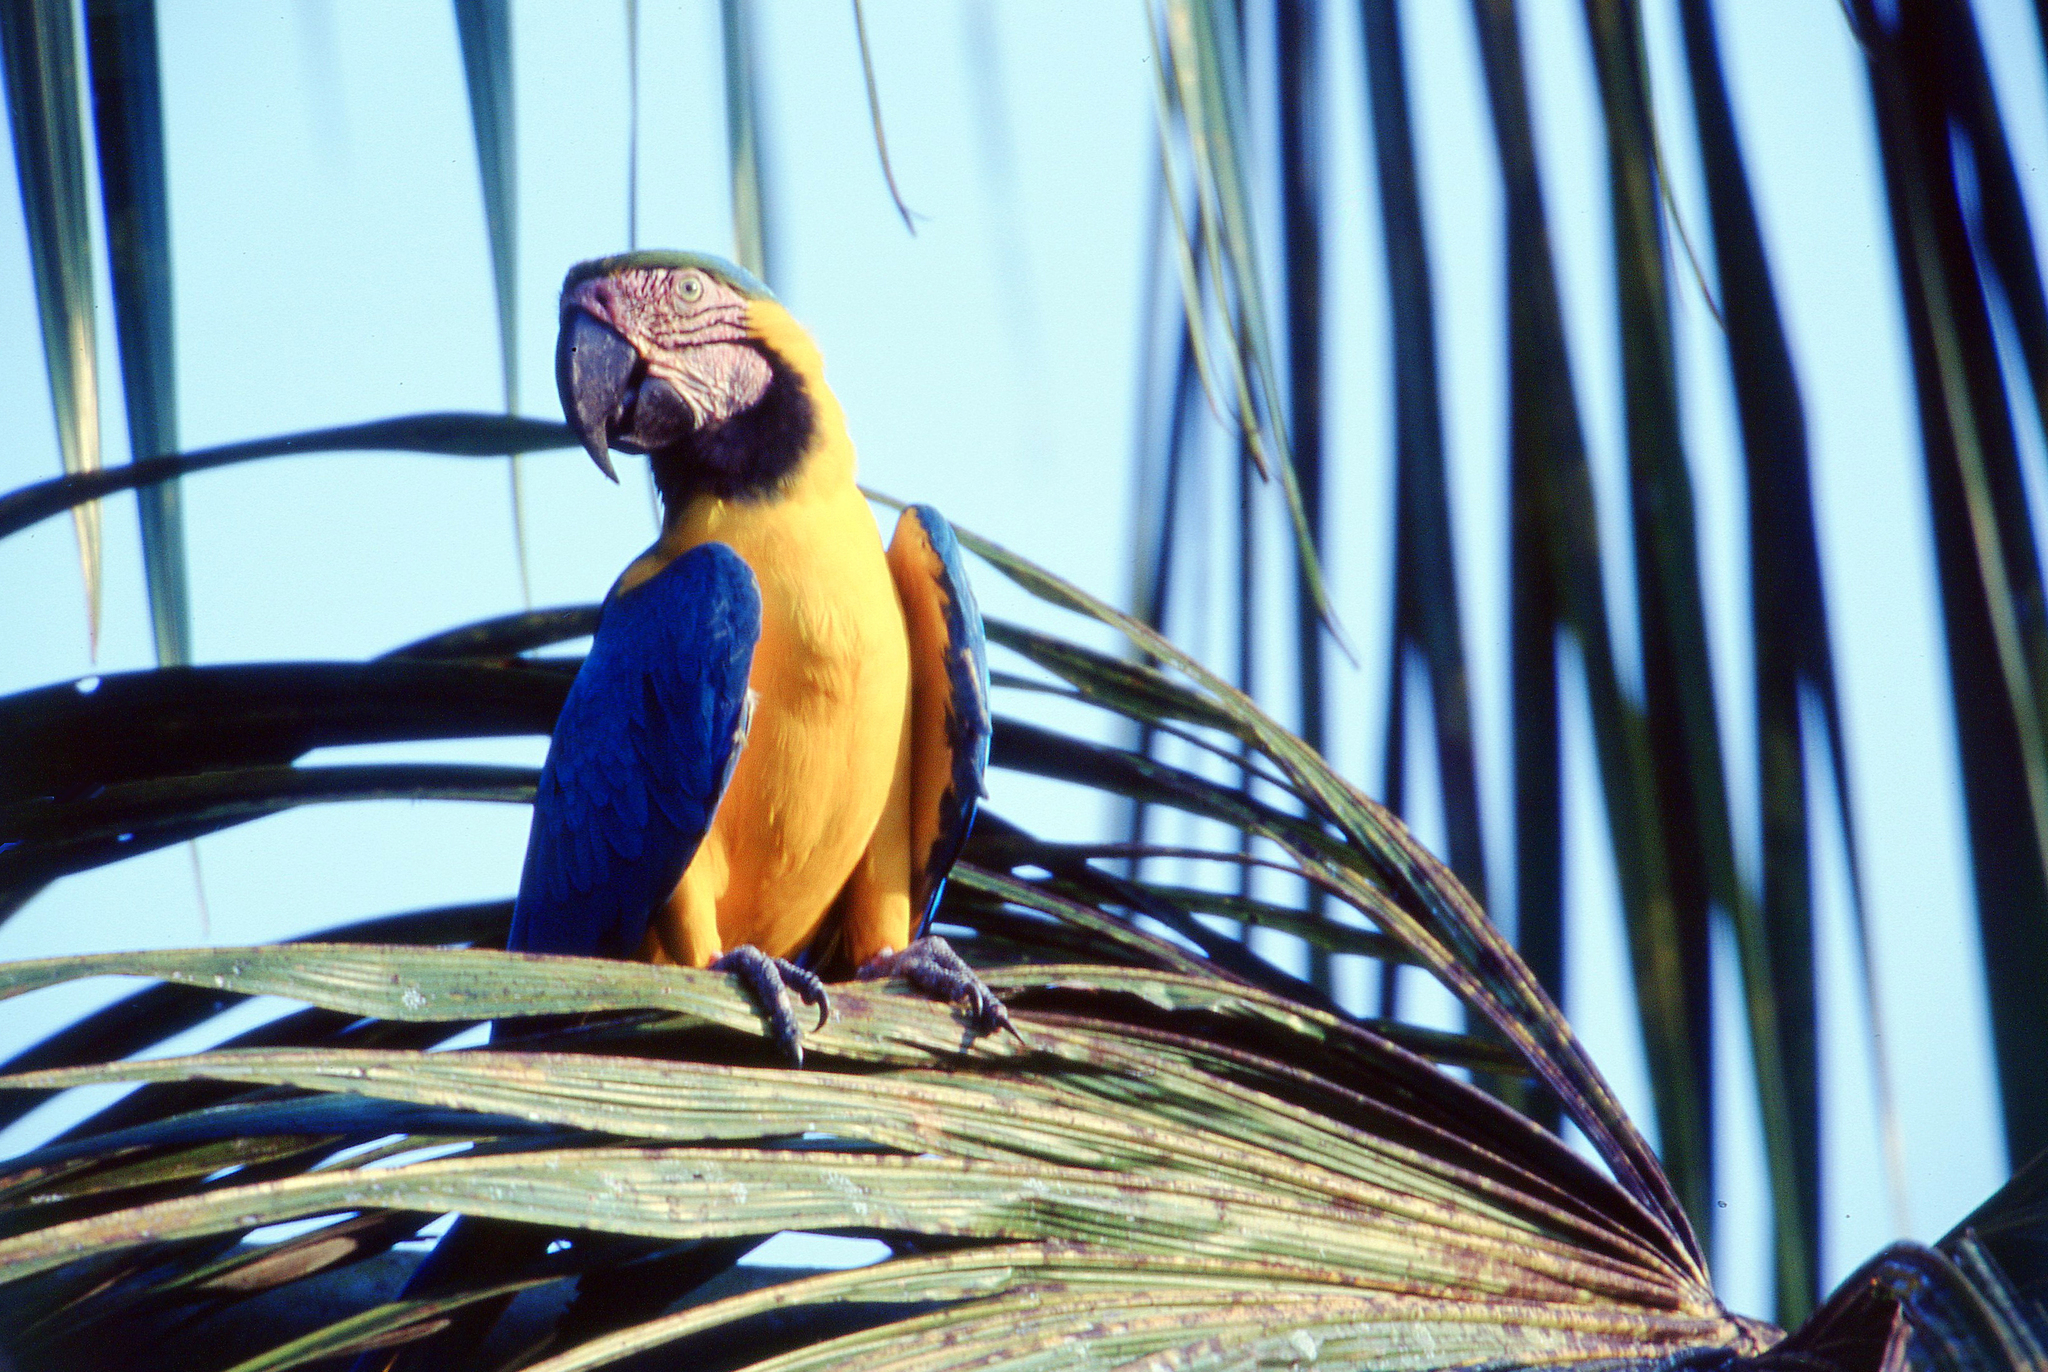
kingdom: Animalia
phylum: Chordata
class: Aves
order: Psittaciformes
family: Psittacidae
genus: Ara
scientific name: Ara ararauna
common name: Blue-and-yellow macaw
